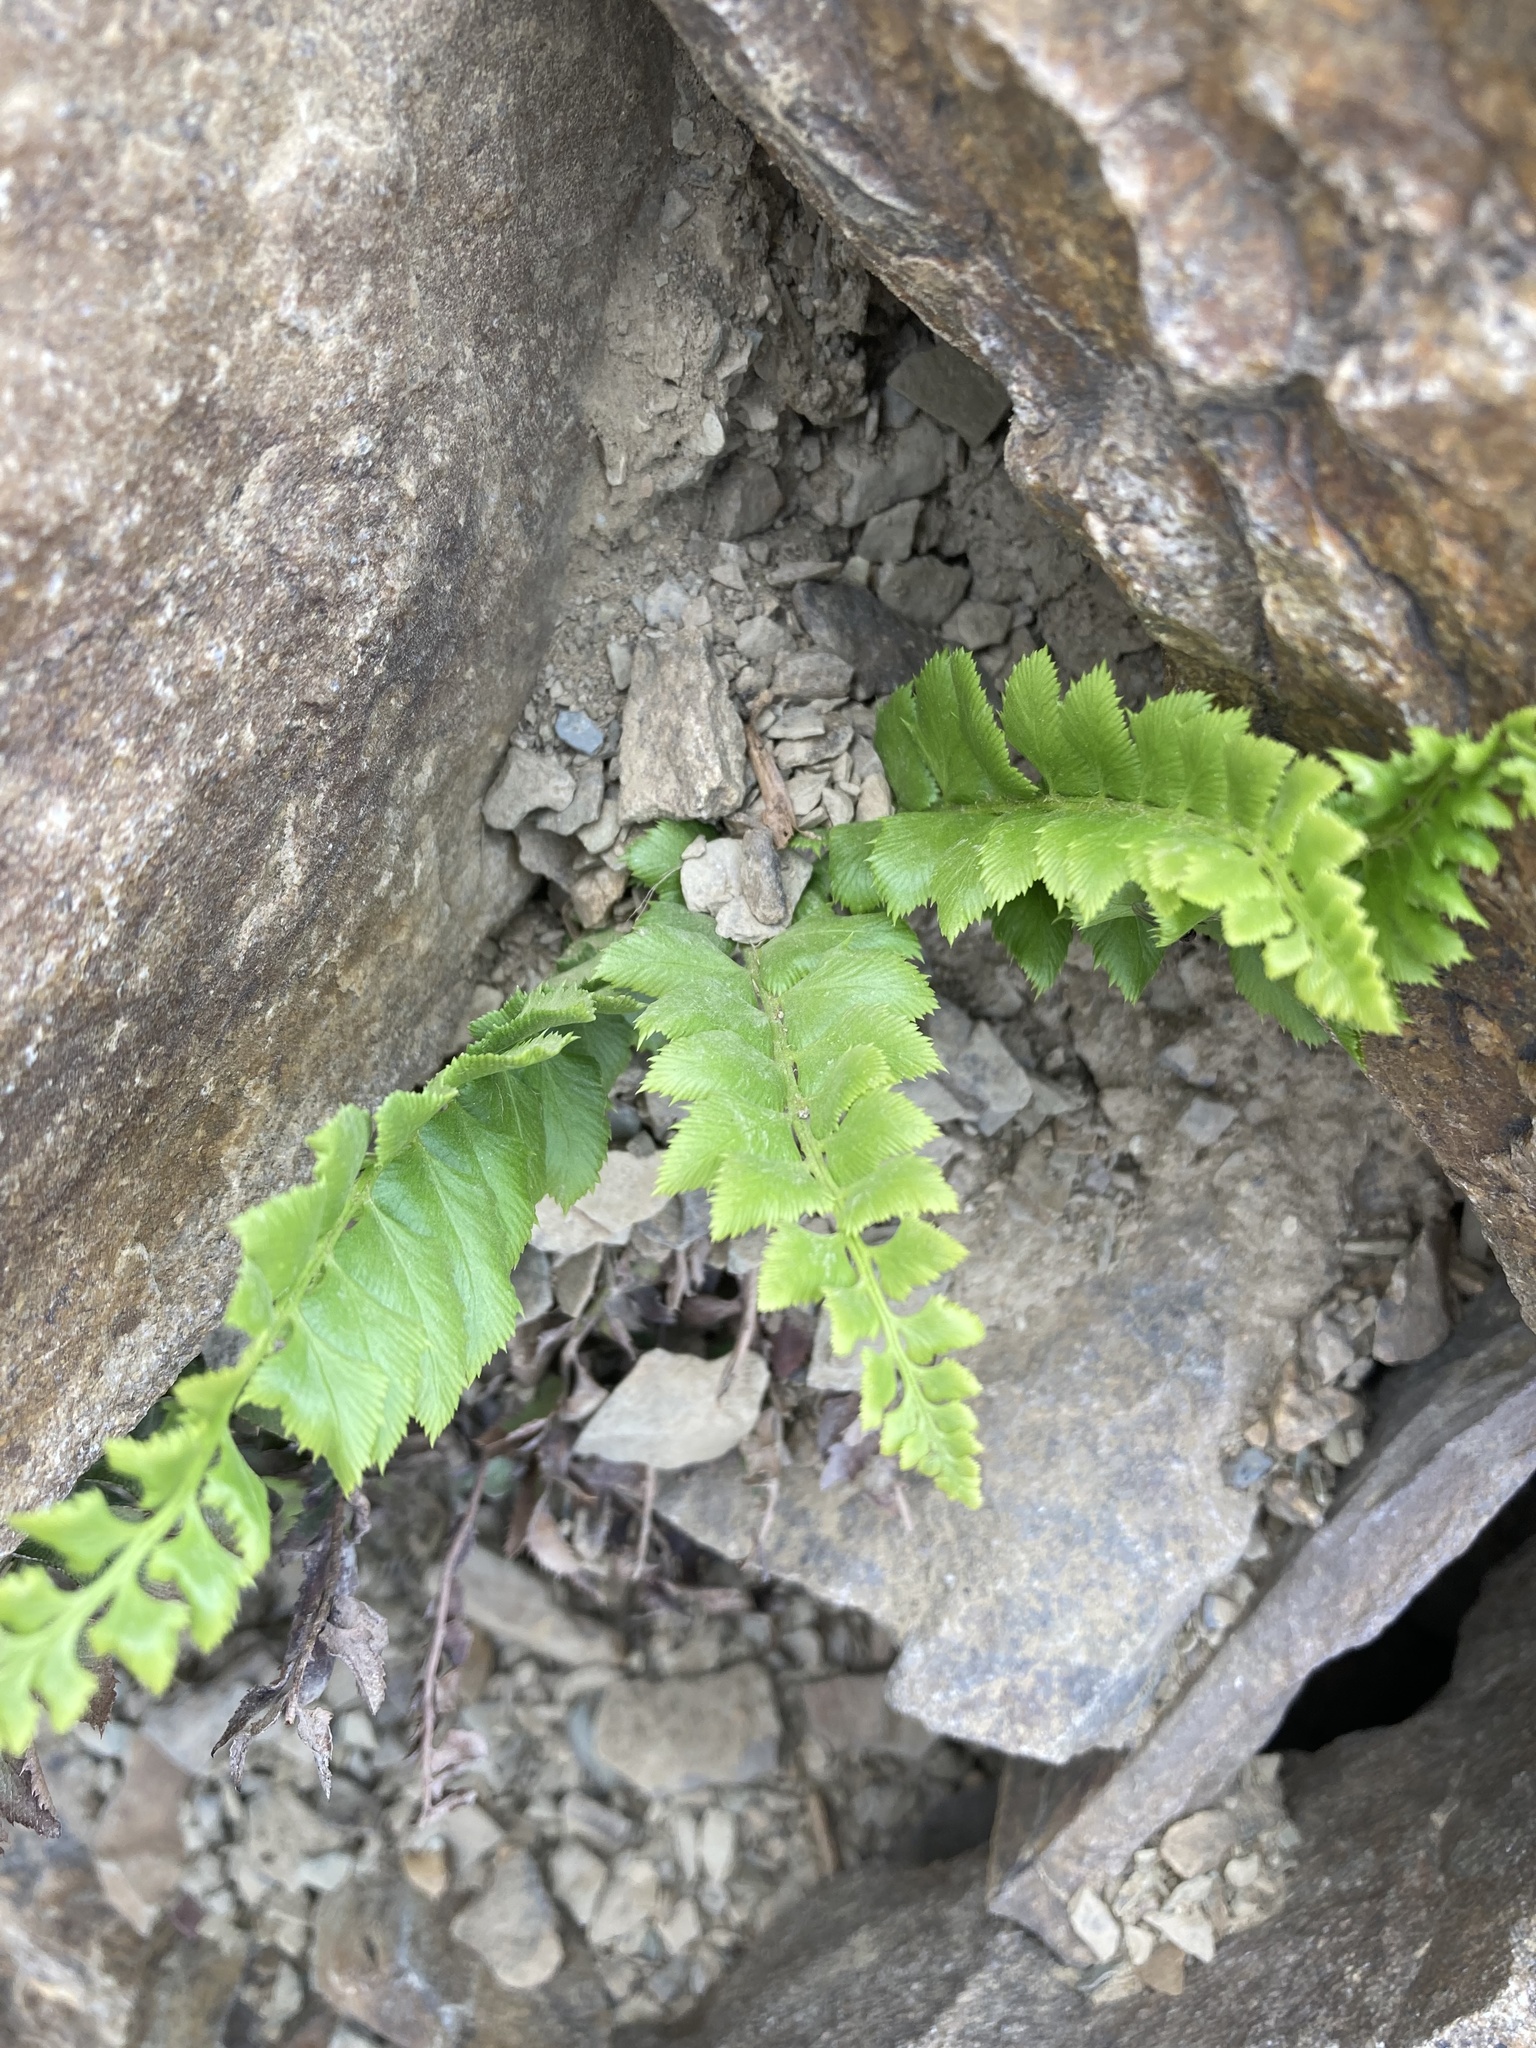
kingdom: Plantae
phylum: Tracheophyta
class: Polypodiopsida
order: Polypodiales
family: Dryopteridaceae
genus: Polystichum
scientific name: Polystichum lonchitis
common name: Holly fern
